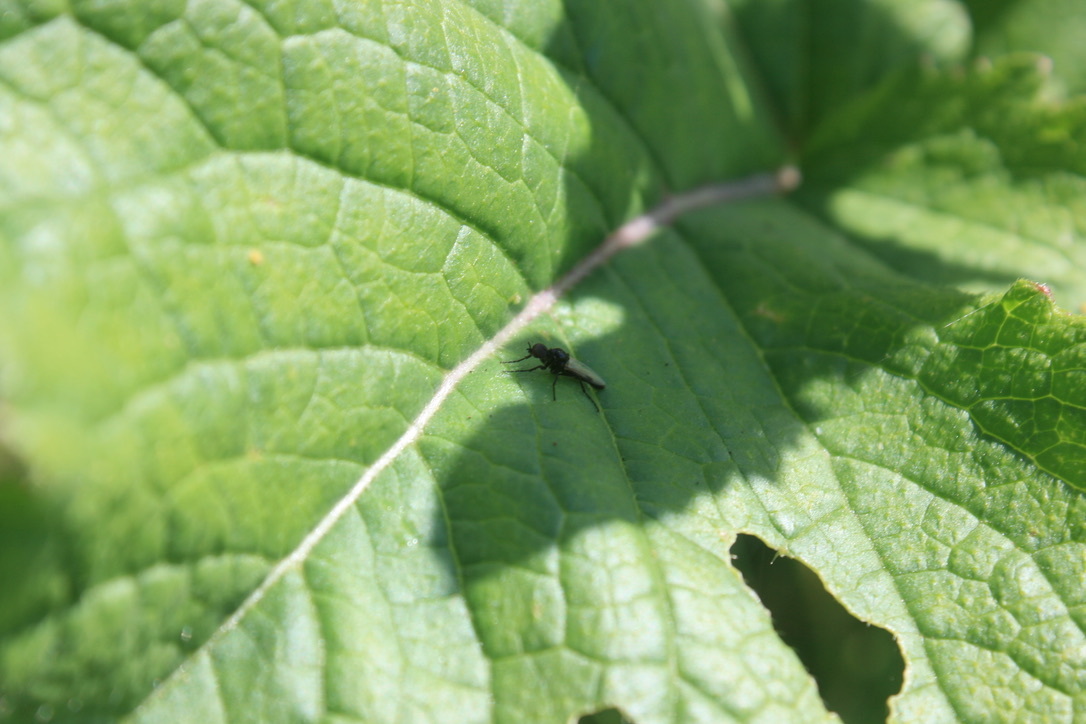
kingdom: Animalia
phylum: Arthropoda
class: Insecta
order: Diptera
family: Bibionidae
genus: Dilophus
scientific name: Dilophus
